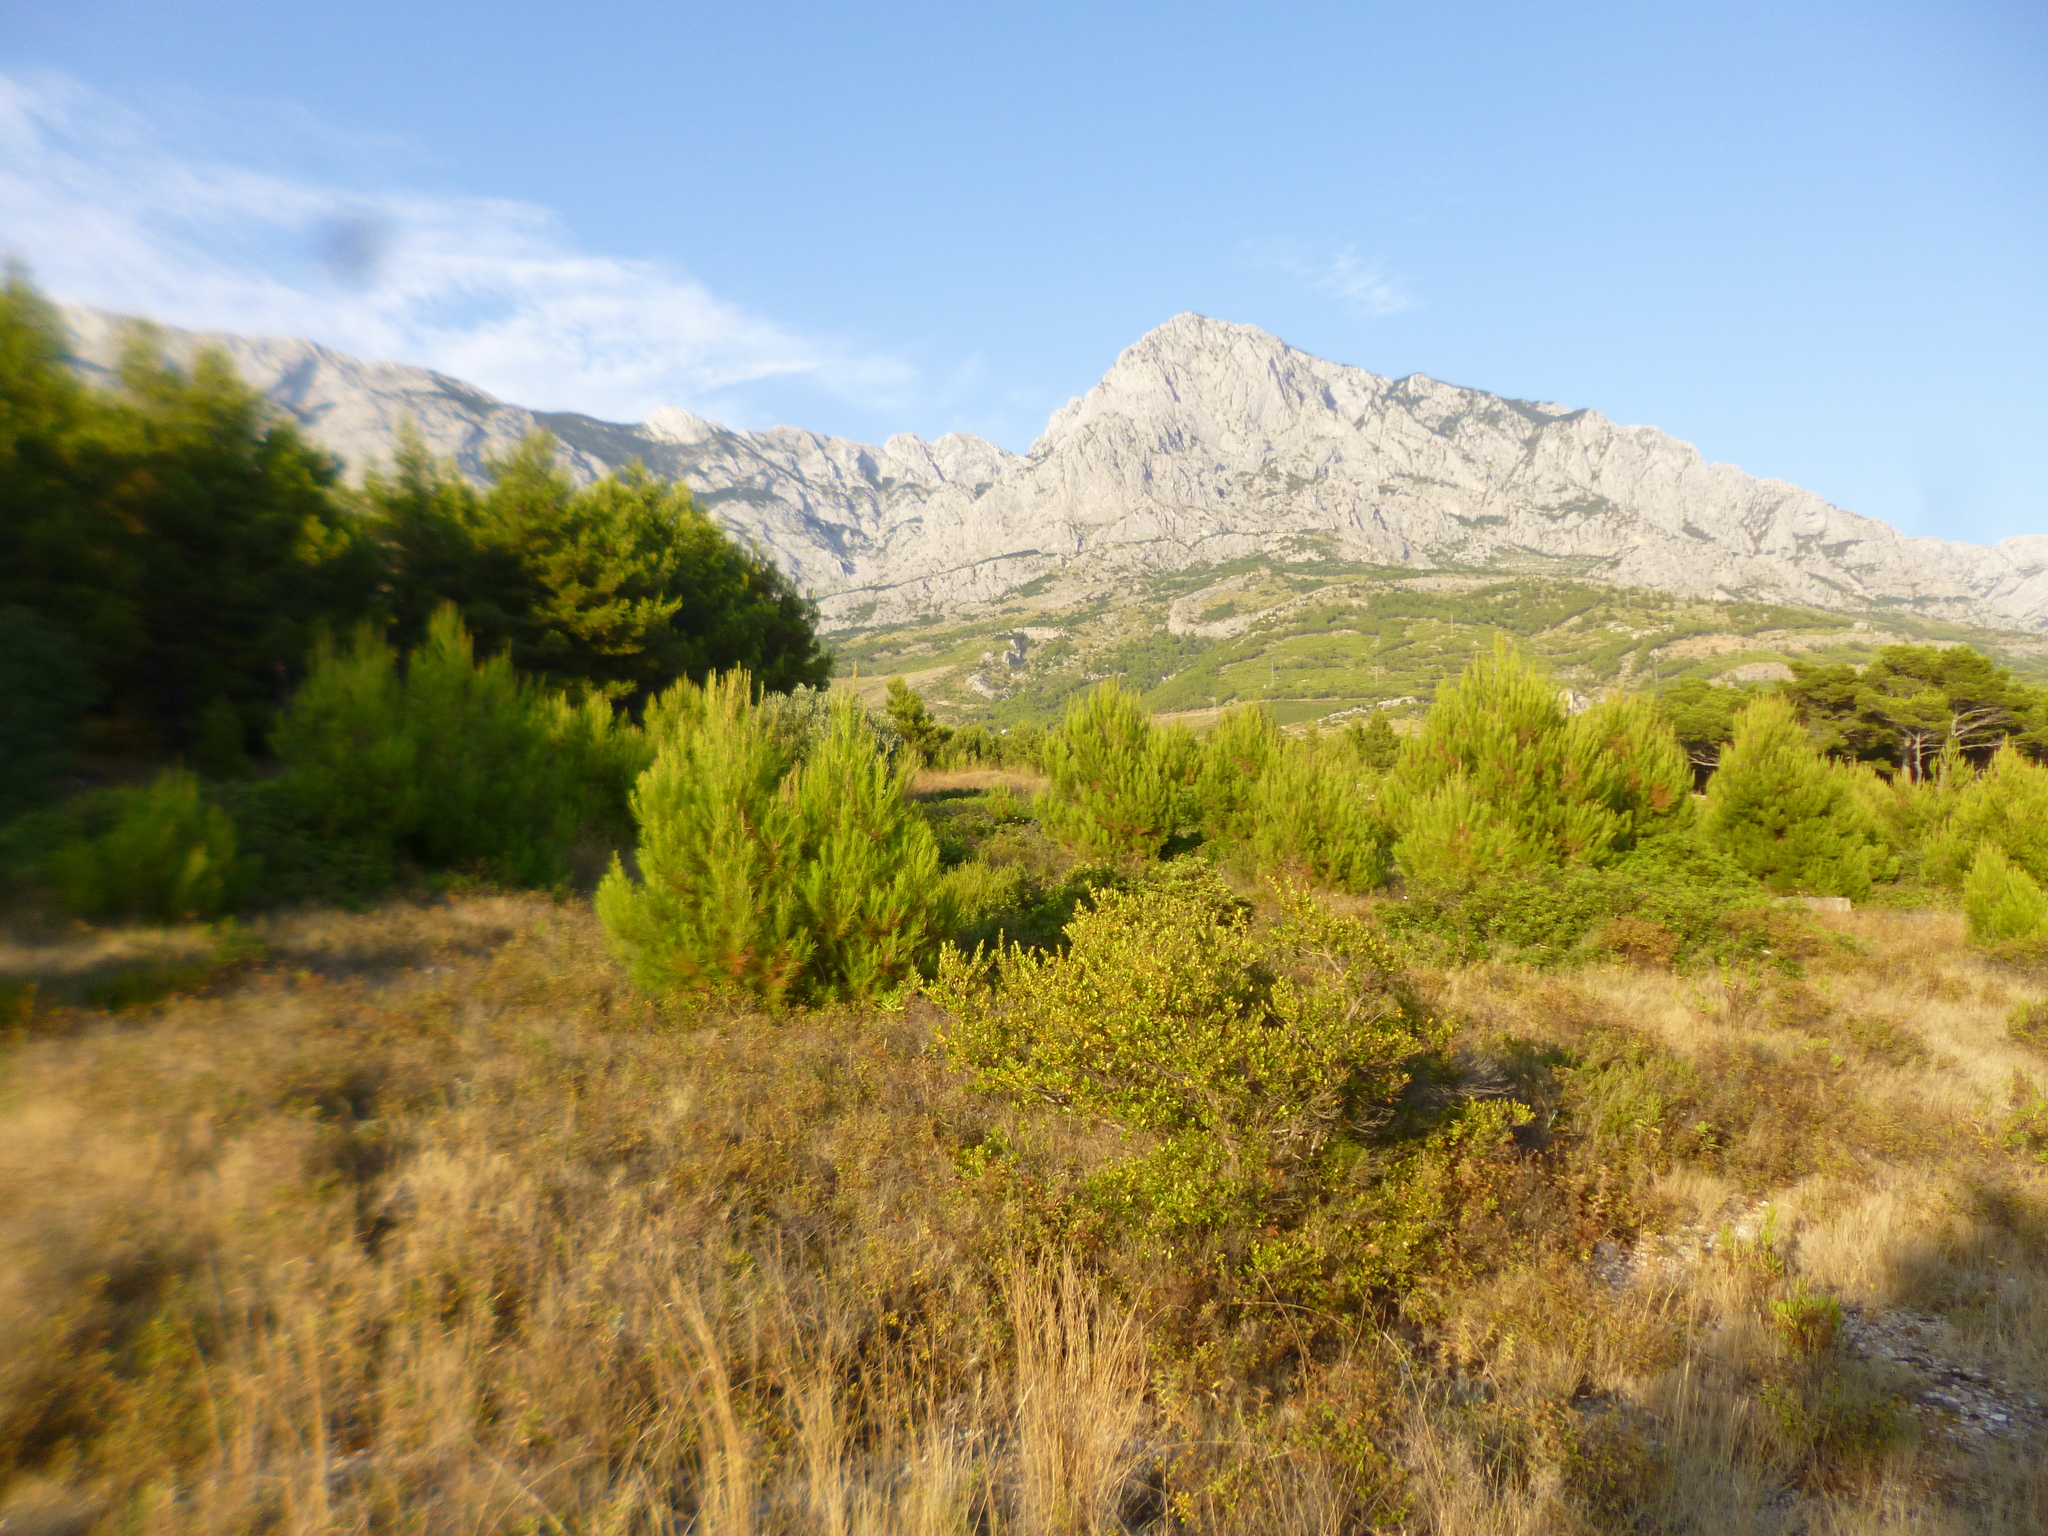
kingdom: Plantae
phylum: Tracheophyta
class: Pinopsida
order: Pinales
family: Pinaceae
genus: Pinus
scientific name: Pinus halepensis
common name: Aleppo pine
